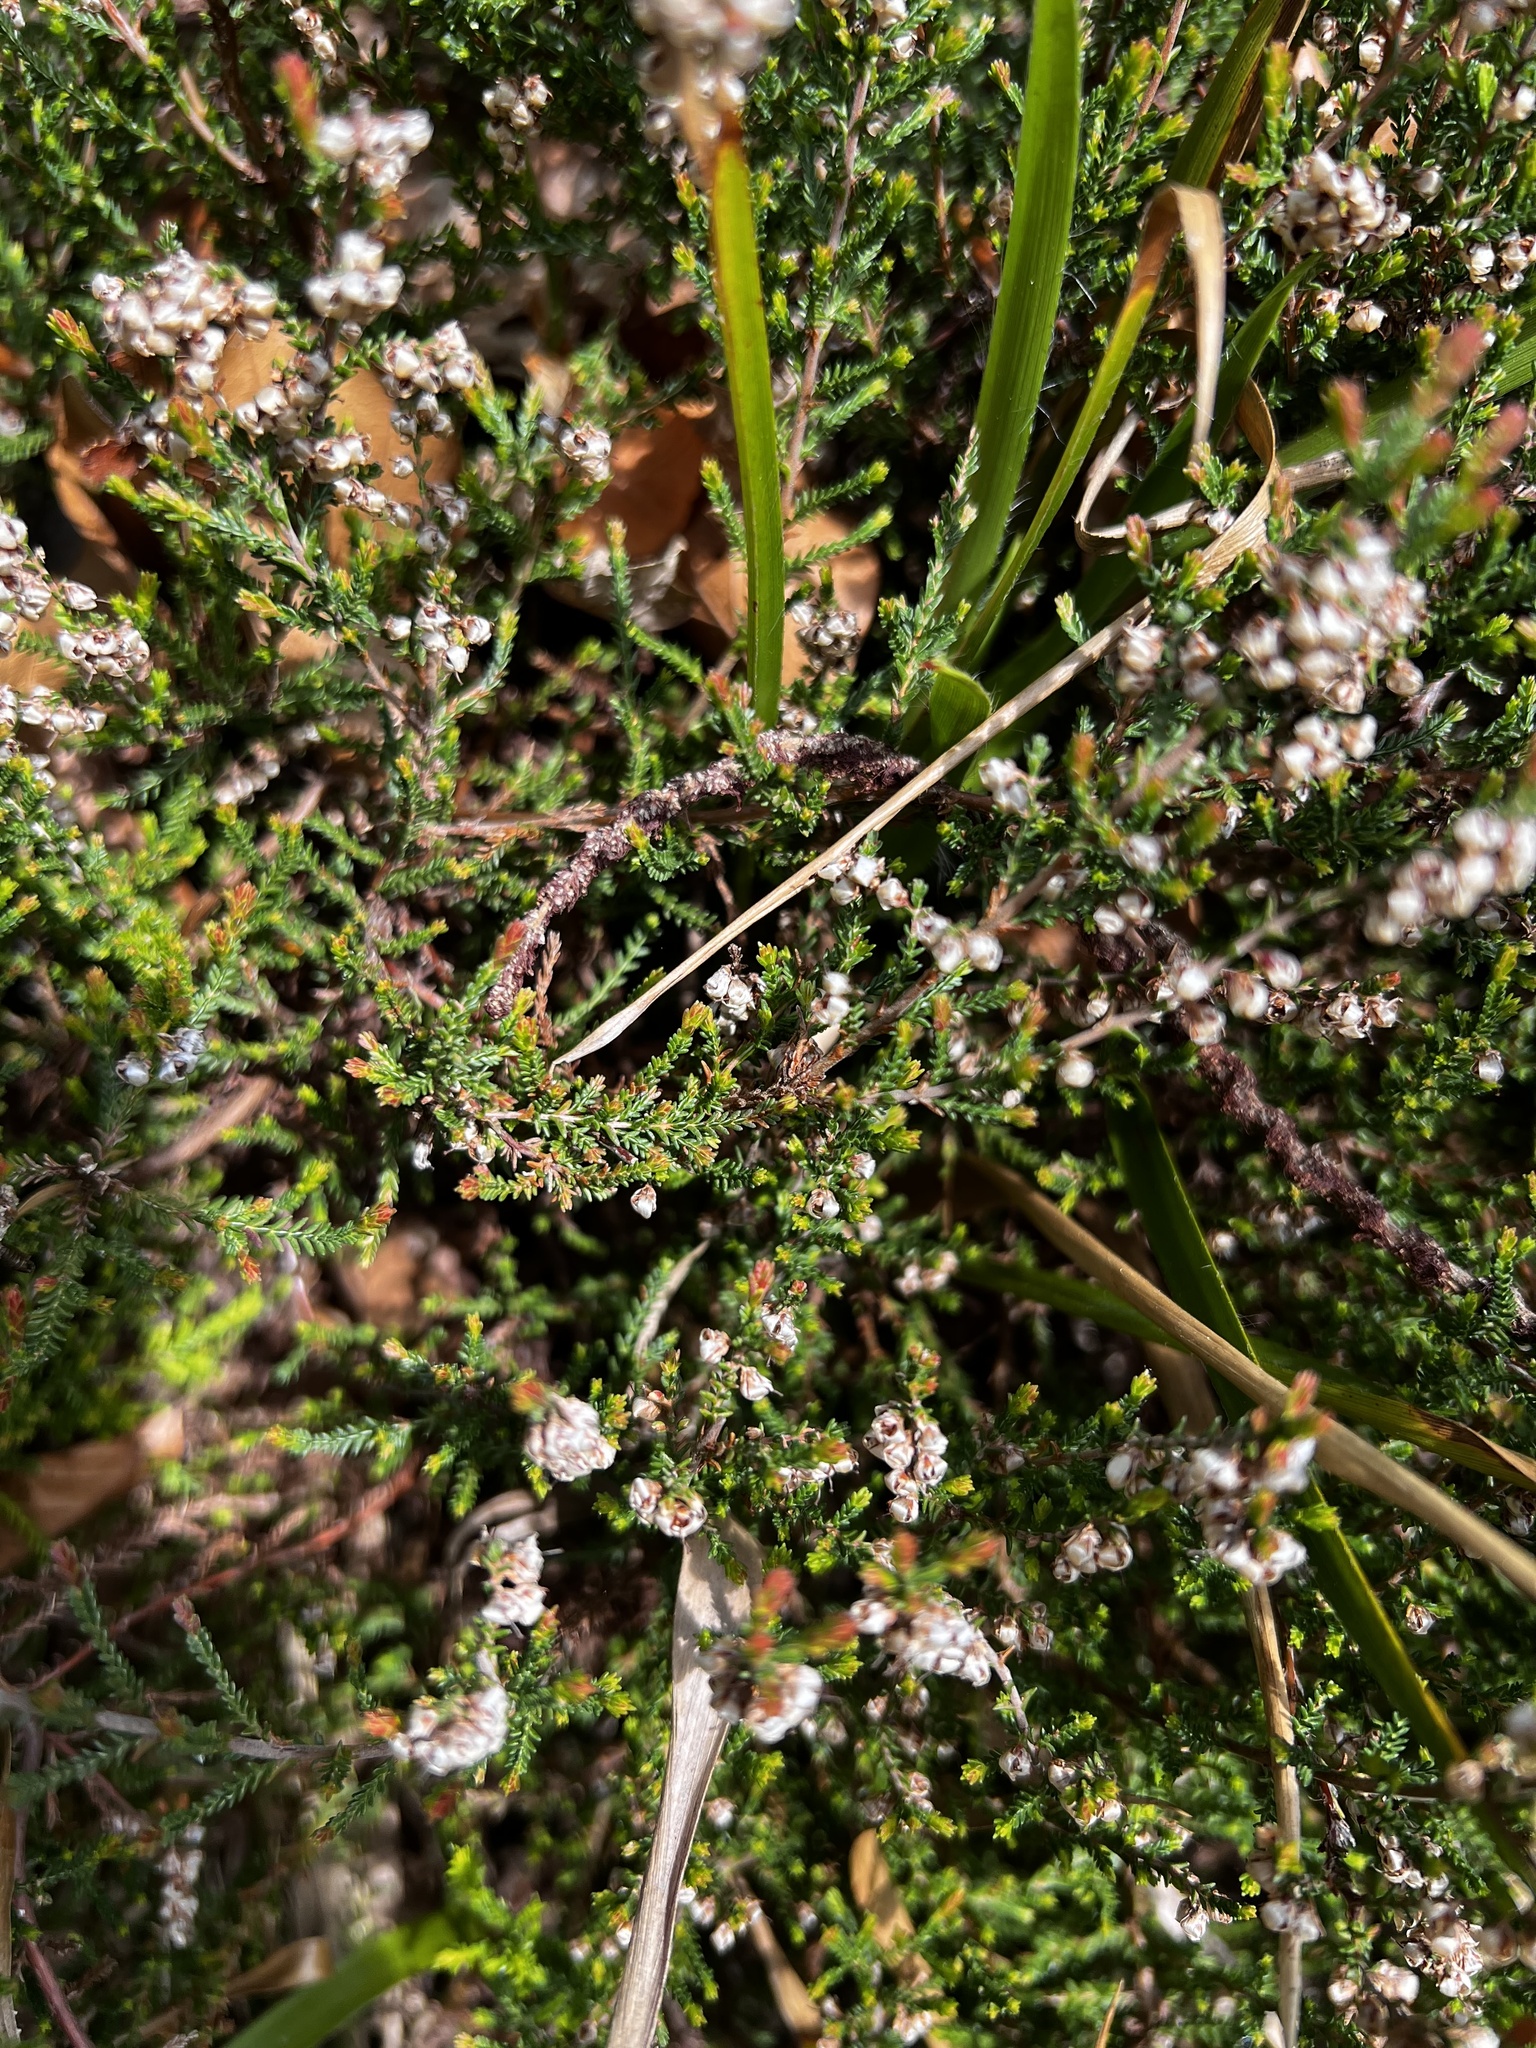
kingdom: Plantae
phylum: Tracheophyta
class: Magnoliopsida
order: Ericales
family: Ericaceae
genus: Calluna
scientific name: Calluna vulgaris
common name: Heather
